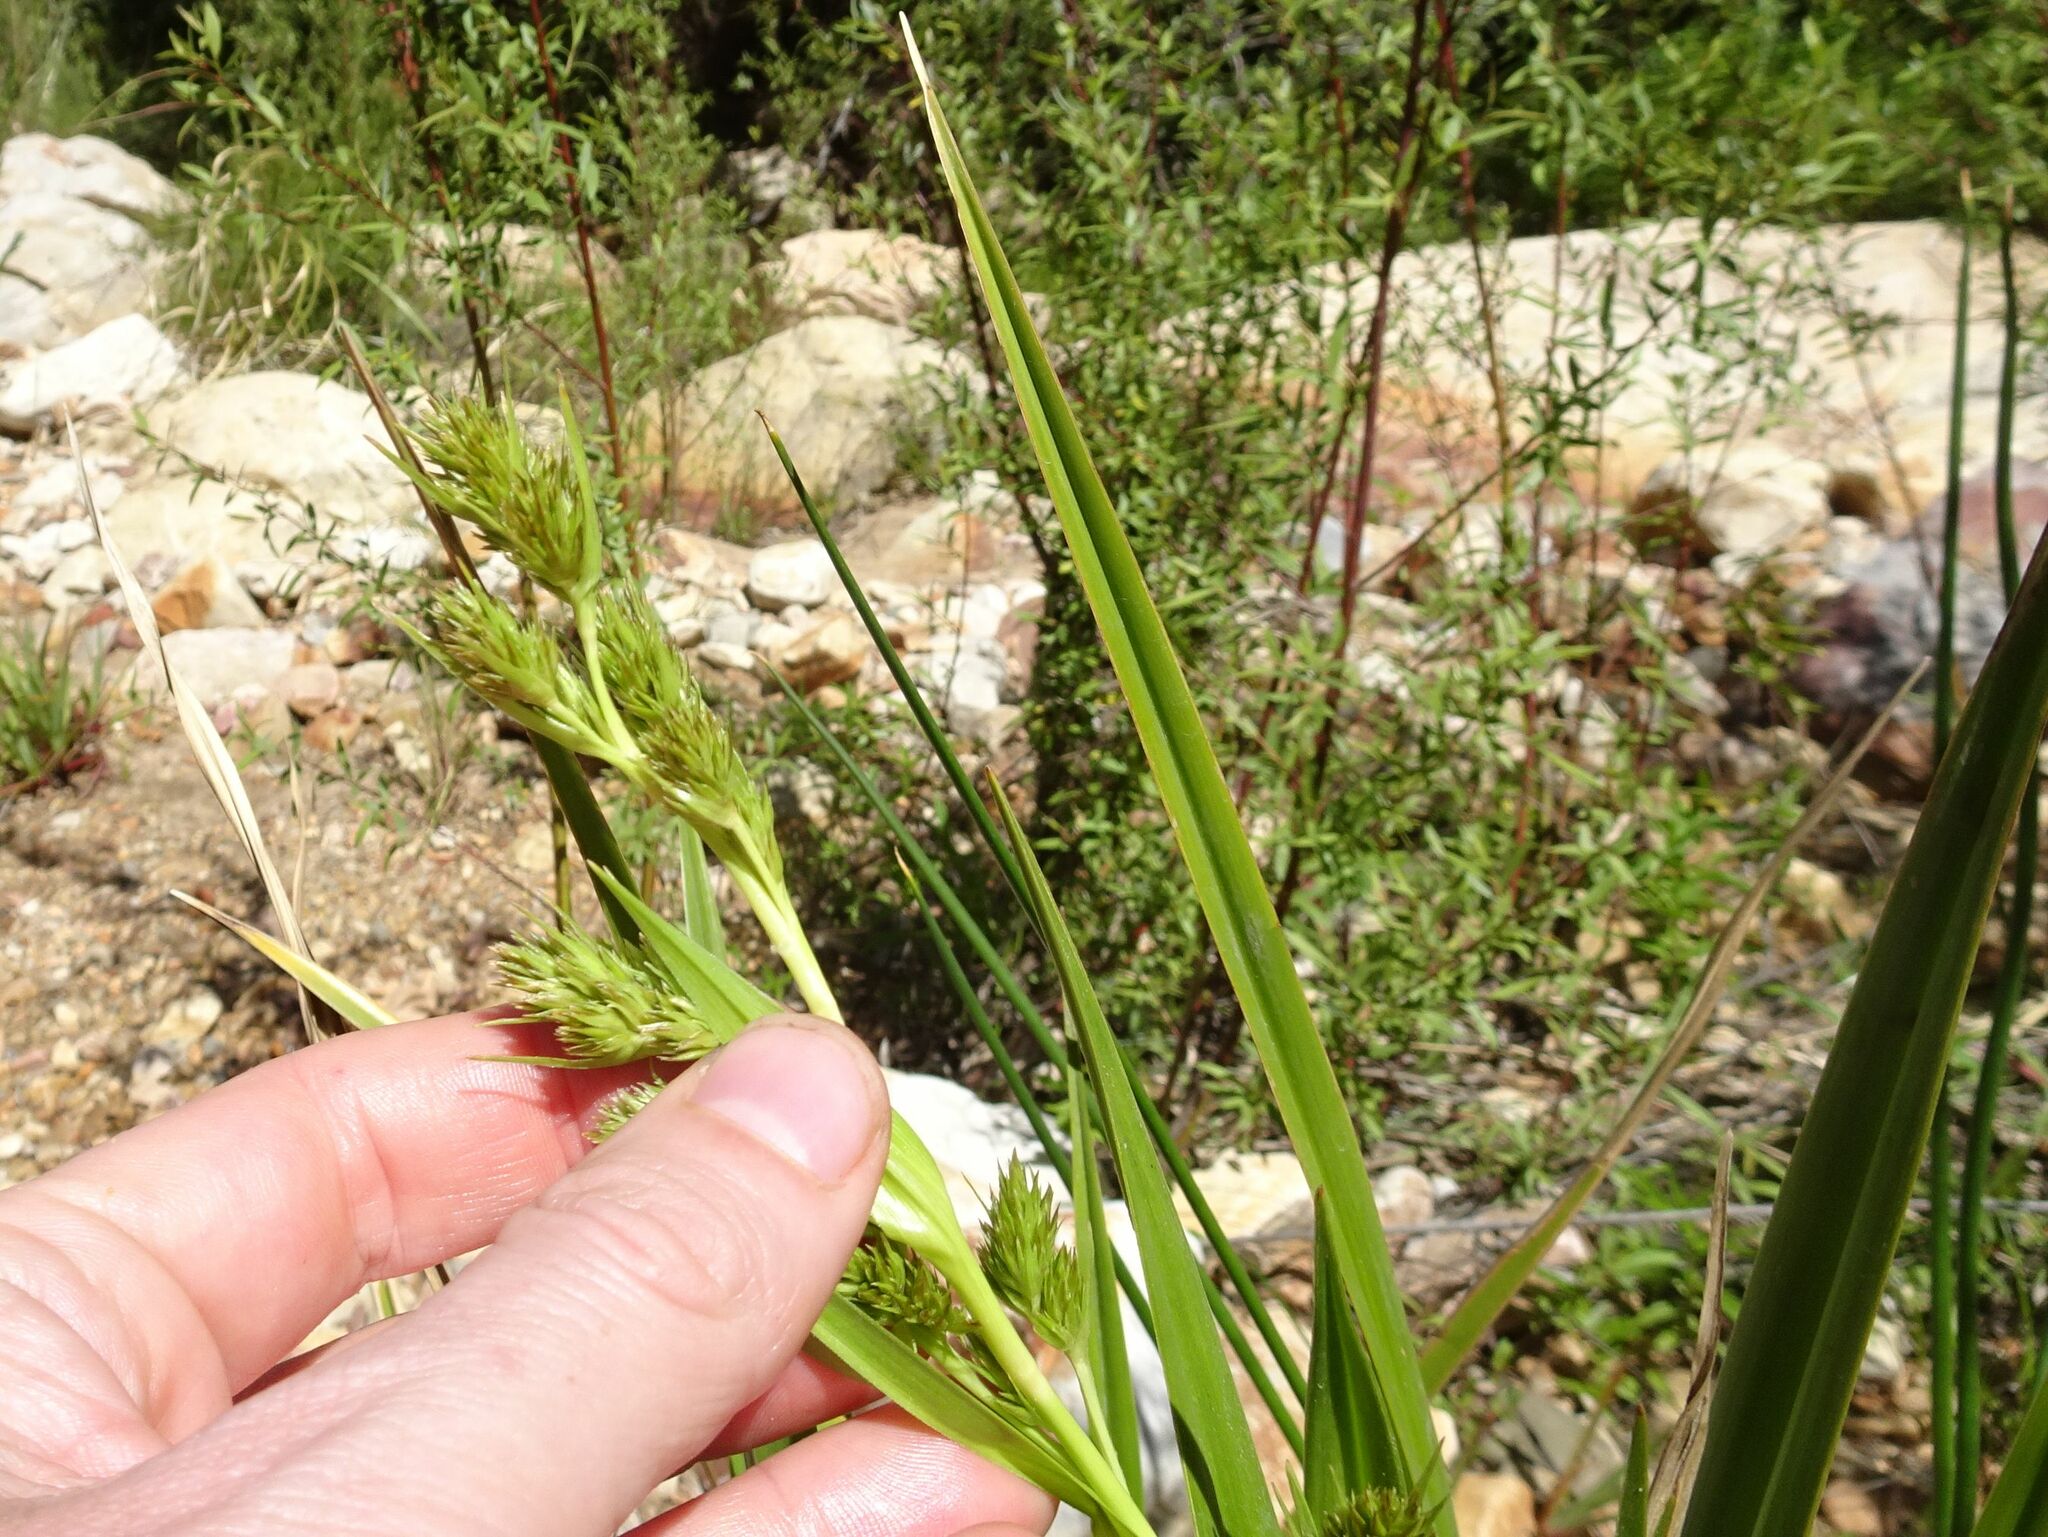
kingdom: Plantae
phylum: Tracheophyta
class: Liliopsida
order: Poales
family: Cyperaceae
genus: Carpha
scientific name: Carpha glomerata
